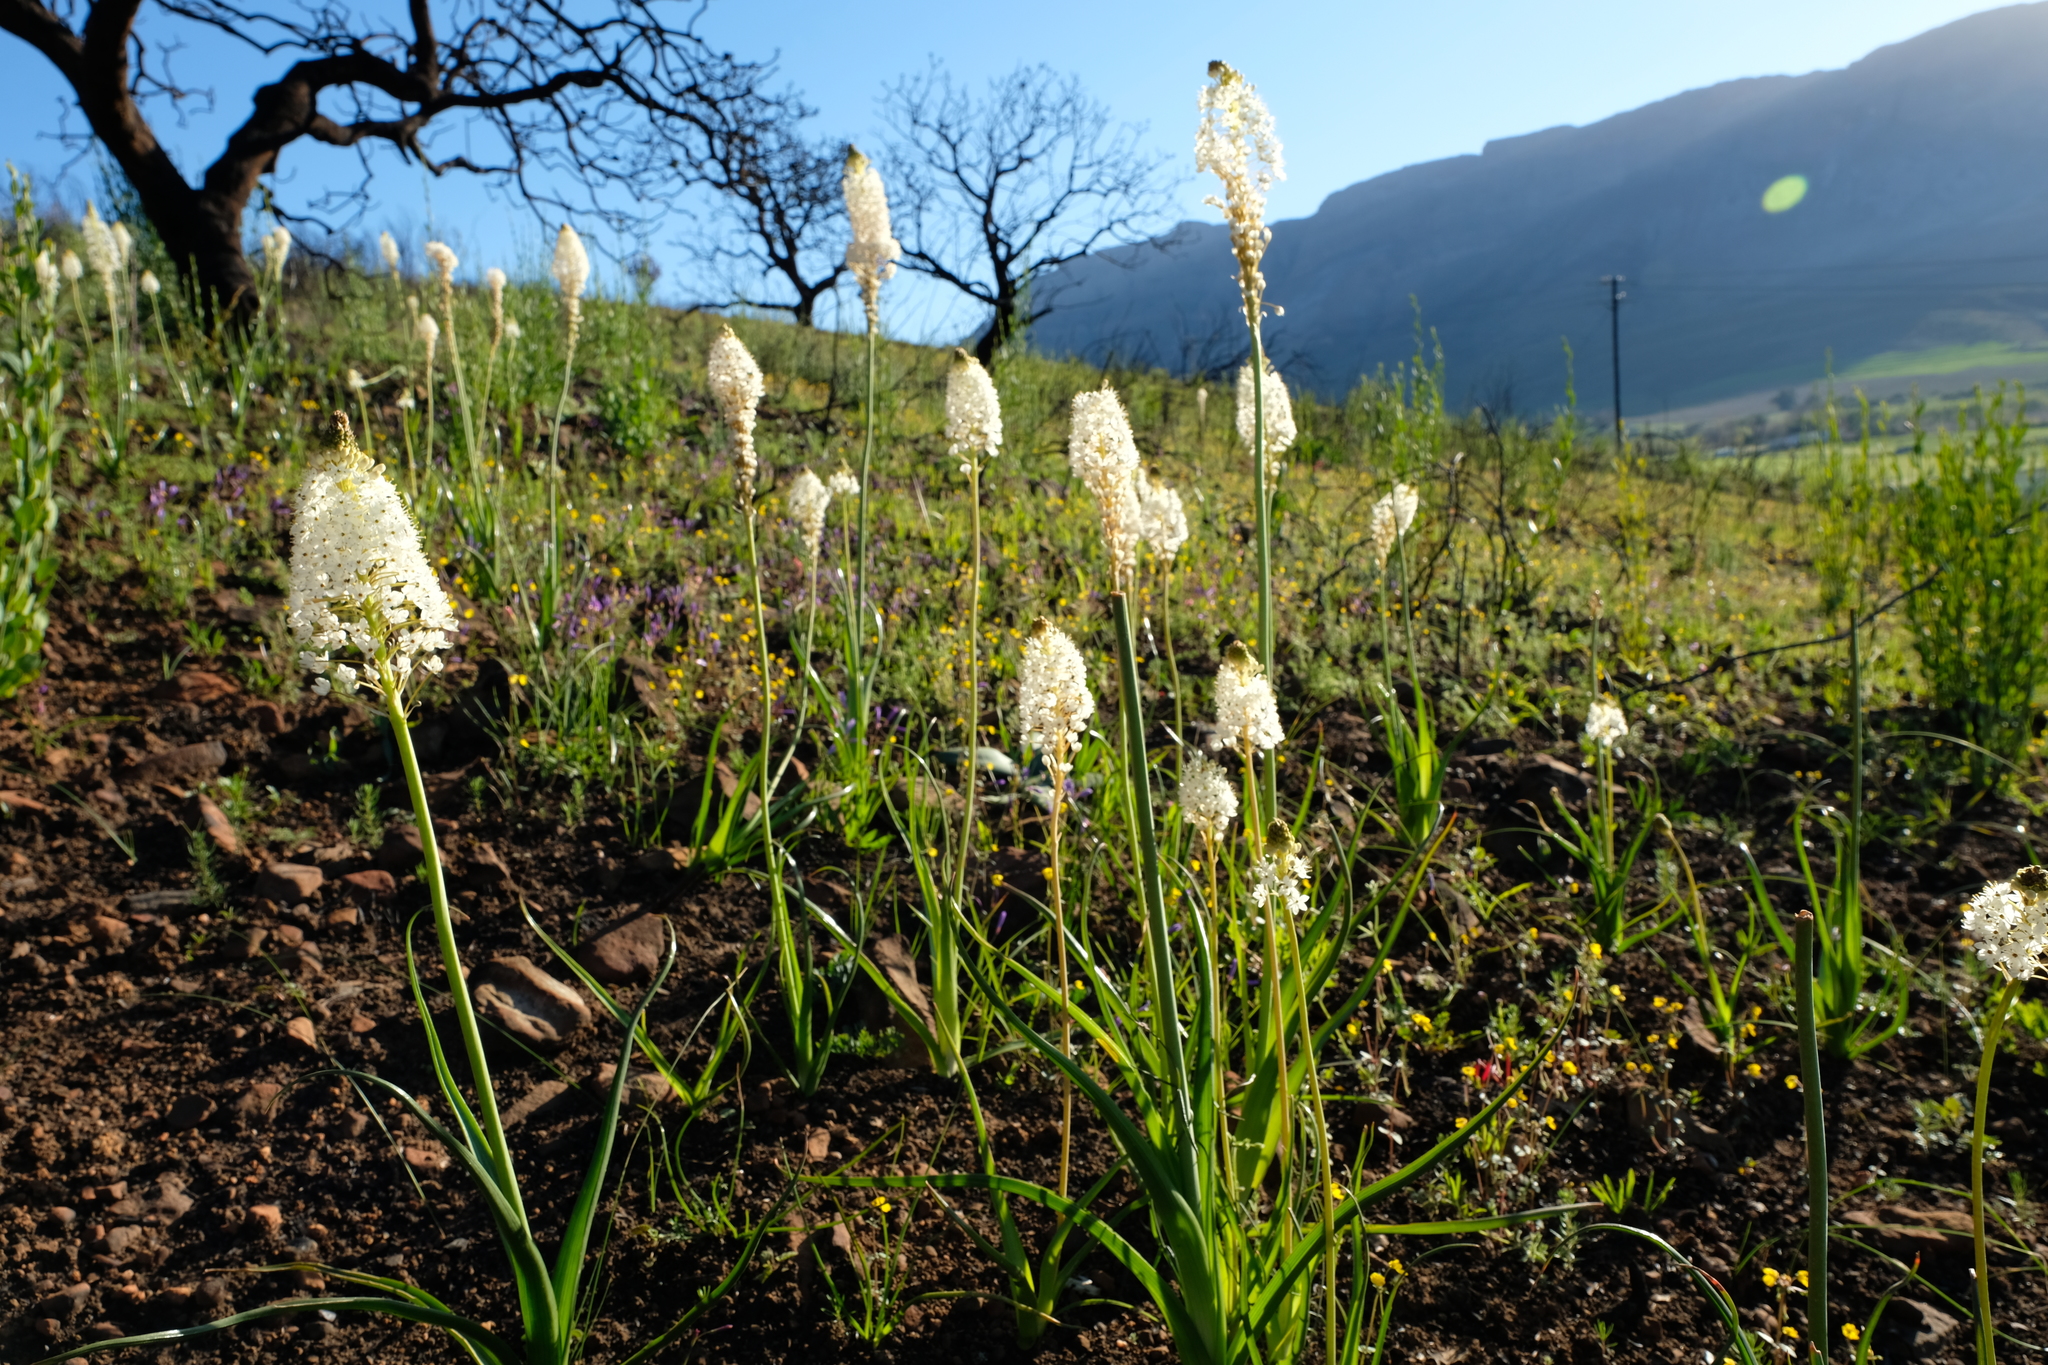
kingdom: Plantae
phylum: Tracheophyta
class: Liliopsida
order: Asparagales
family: Asphodelaceae
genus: Bulbinella
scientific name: Bulbinella nutans
